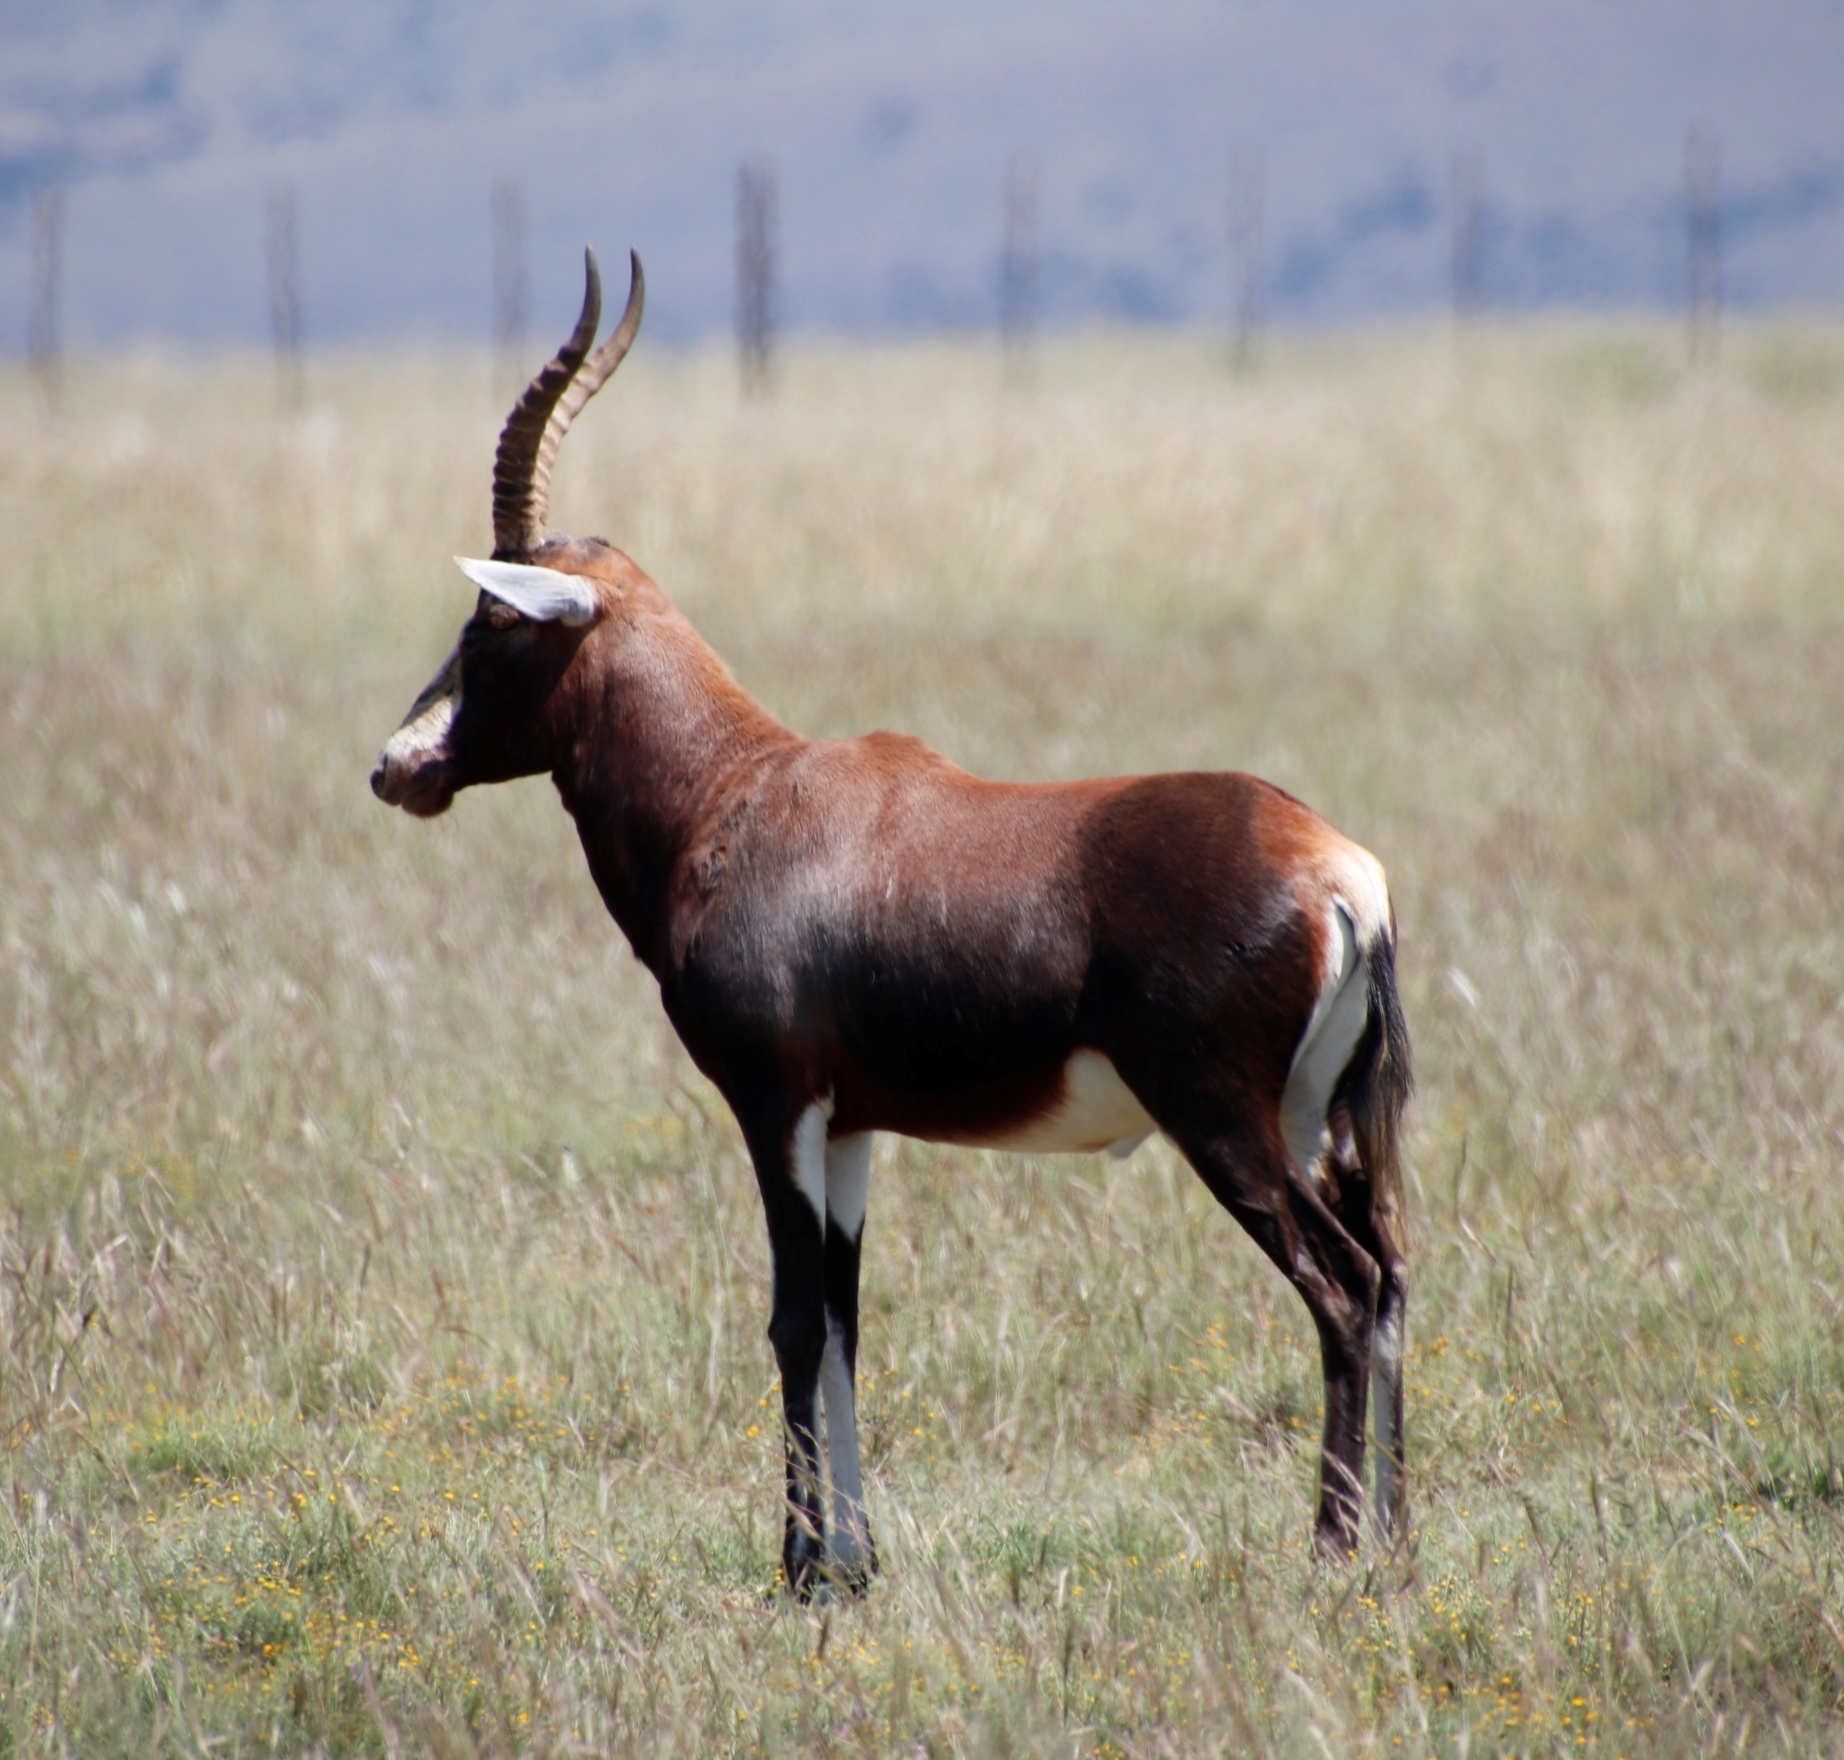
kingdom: Animalia
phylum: Chordata
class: Mammalia
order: Artiodactyla
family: Bovidae
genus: Damaliscus
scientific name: Damaliscus pygargus
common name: Bontebok
